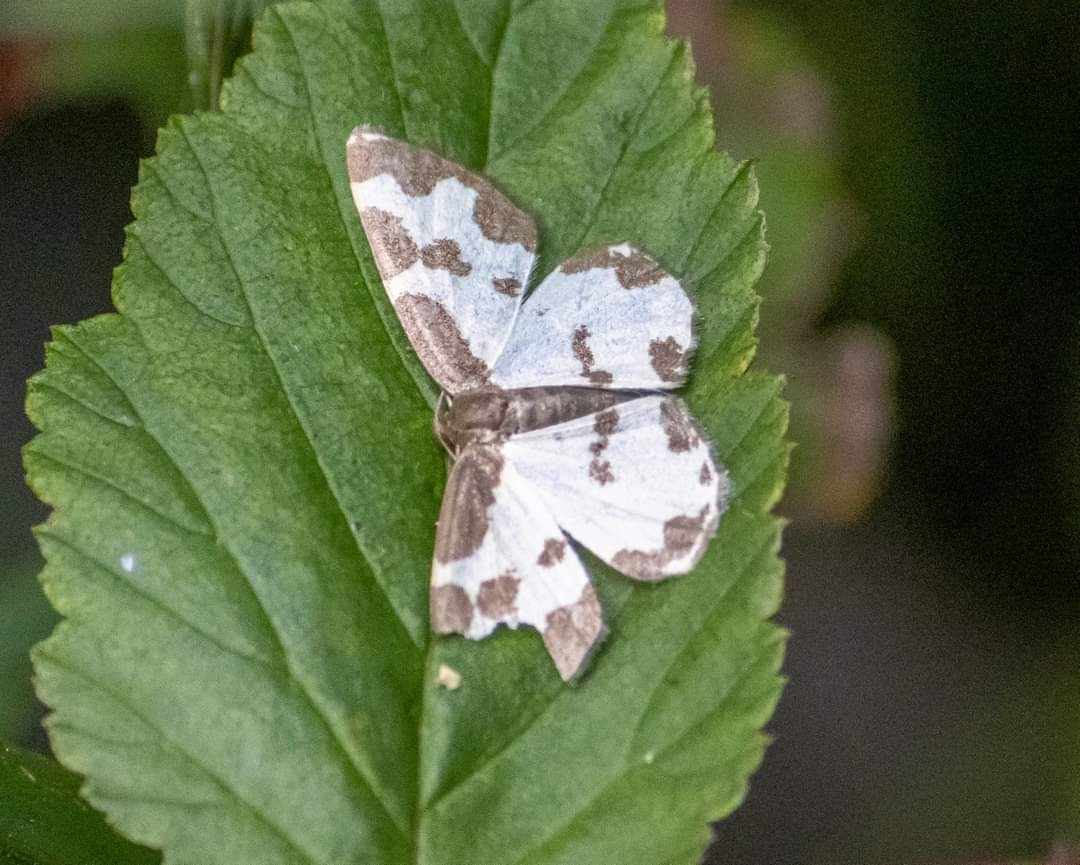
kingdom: Animalia
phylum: Arthropoda
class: Insecta
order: Lepidoptera
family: Geometridae
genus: Lomaspilis
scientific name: Lomaspilis marginata
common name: Clouded border
